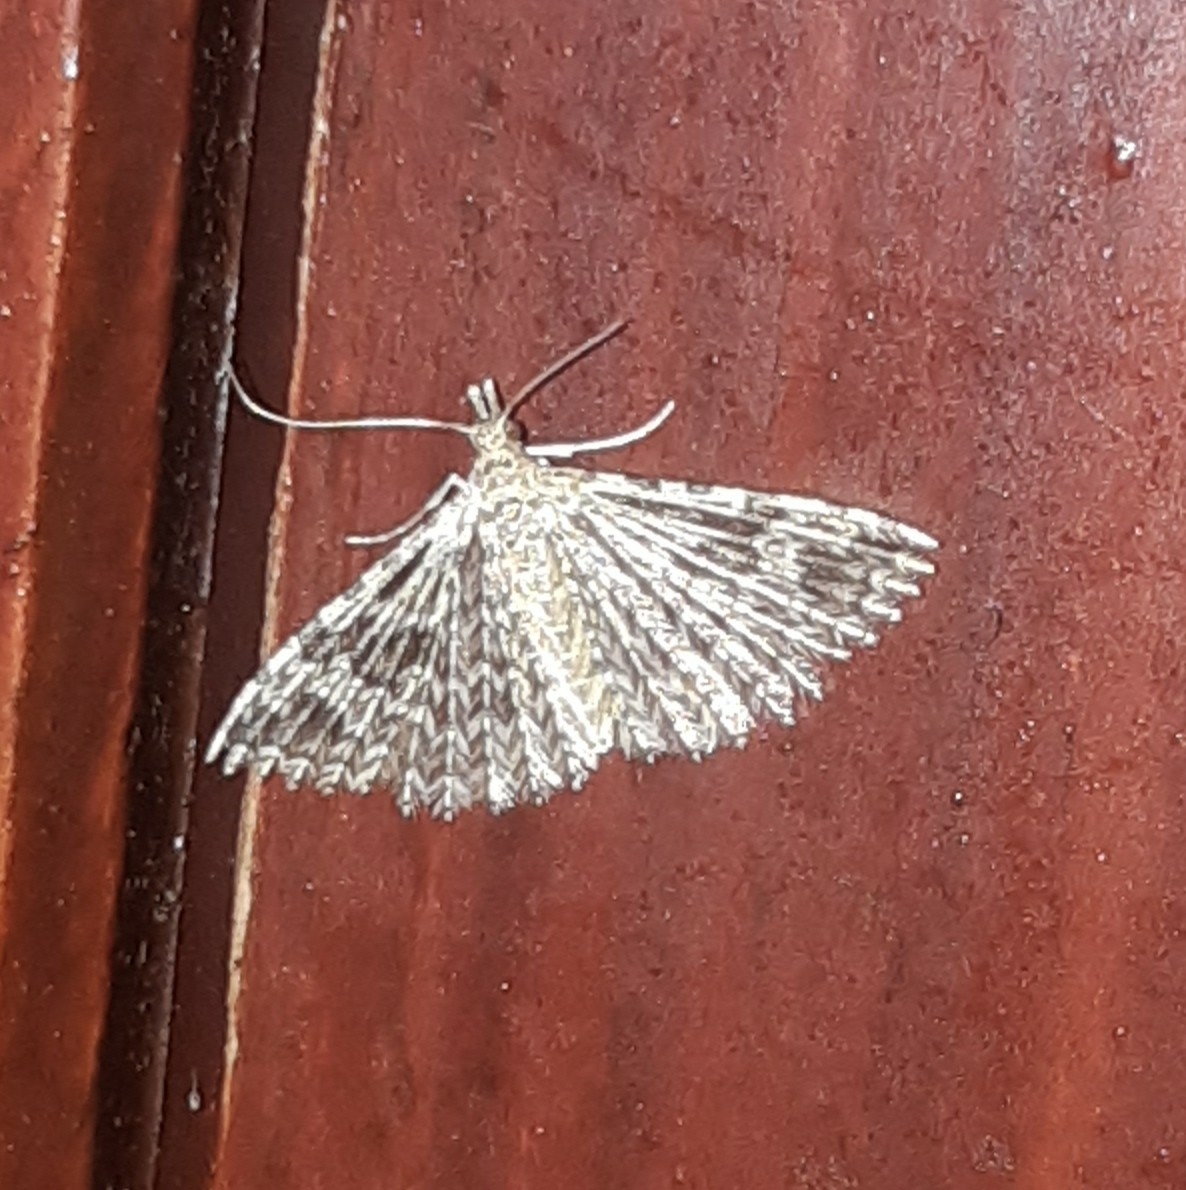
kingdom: Animalia
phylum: Arthropoda
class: Insecta
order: Lepidoptera
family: Alucitidae
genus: Alucita
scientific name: Alucita hexadactyla
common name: Twenty-plume moth
